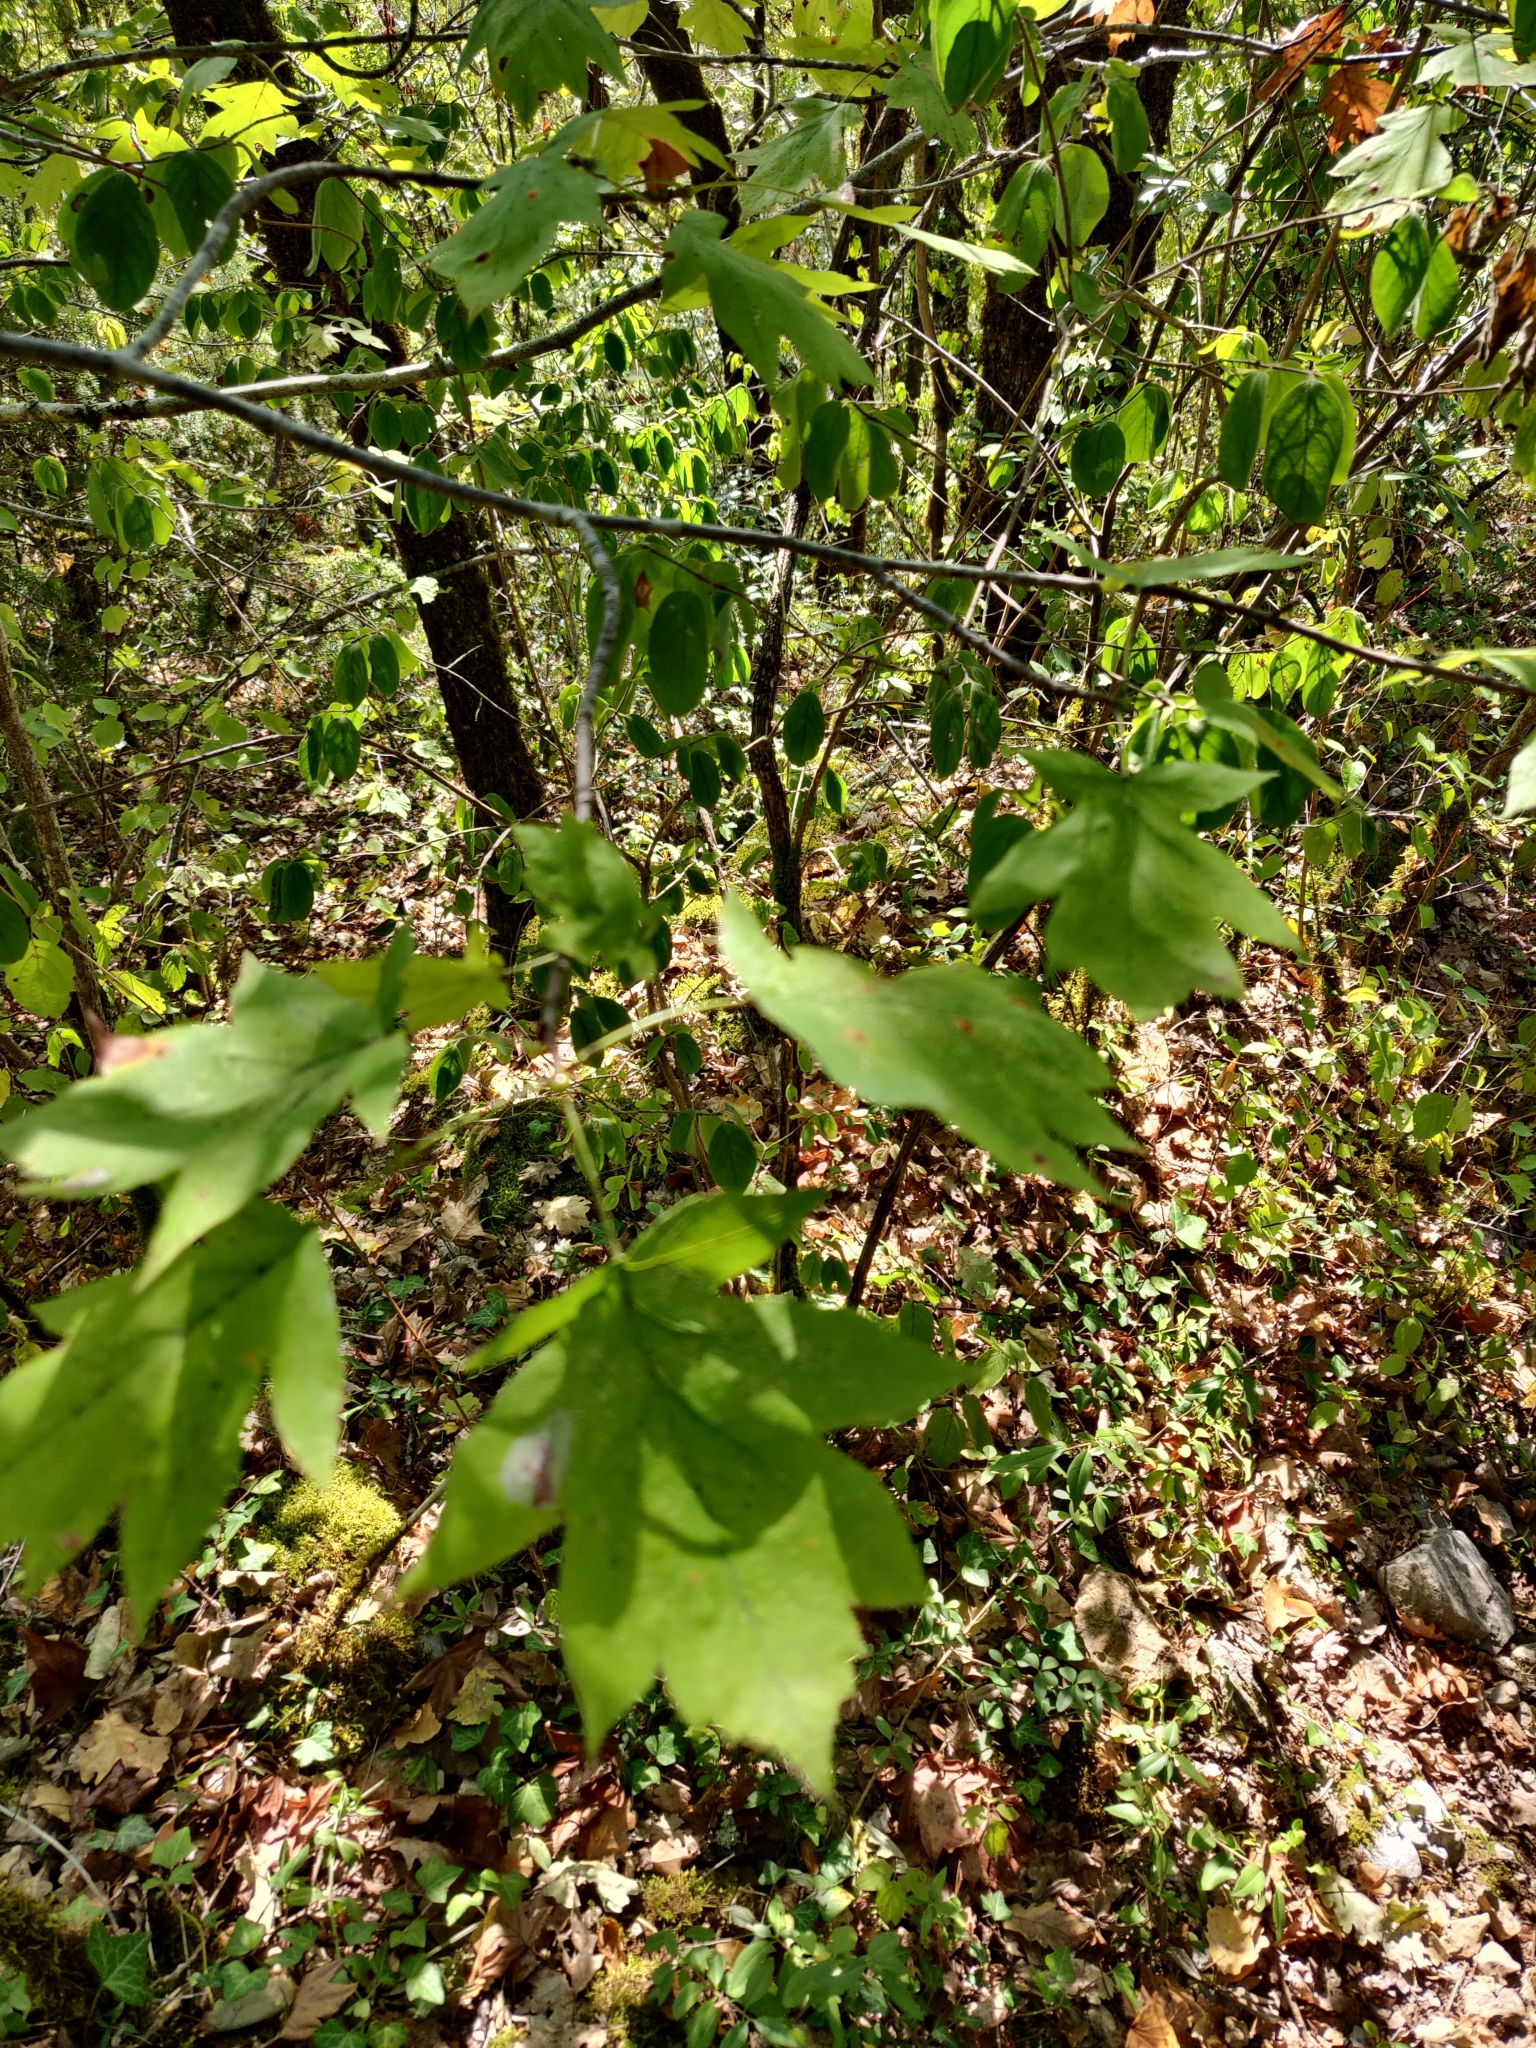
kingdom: Plantae
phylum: Tracheophyta
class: Magnoliopsida
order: Rosales
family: Rosaceae
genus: Torminalis
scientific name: Torminalis glaberrima
